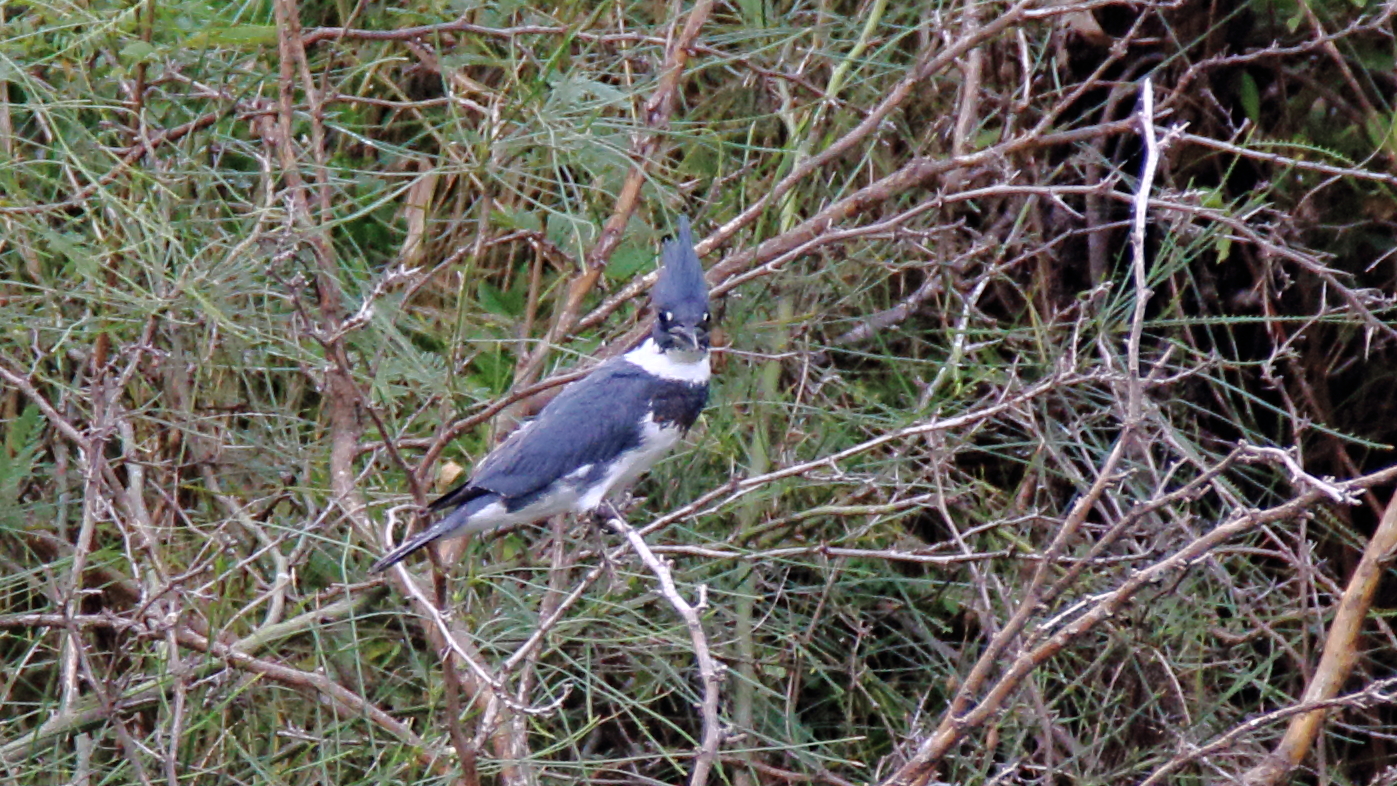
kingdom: Animalia
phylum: Chordata
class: Aves
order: Coraciiformes
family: Alcedinidae
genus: Megaceryle
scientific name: Megaceryle alcyon
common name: Belted kingfisher
